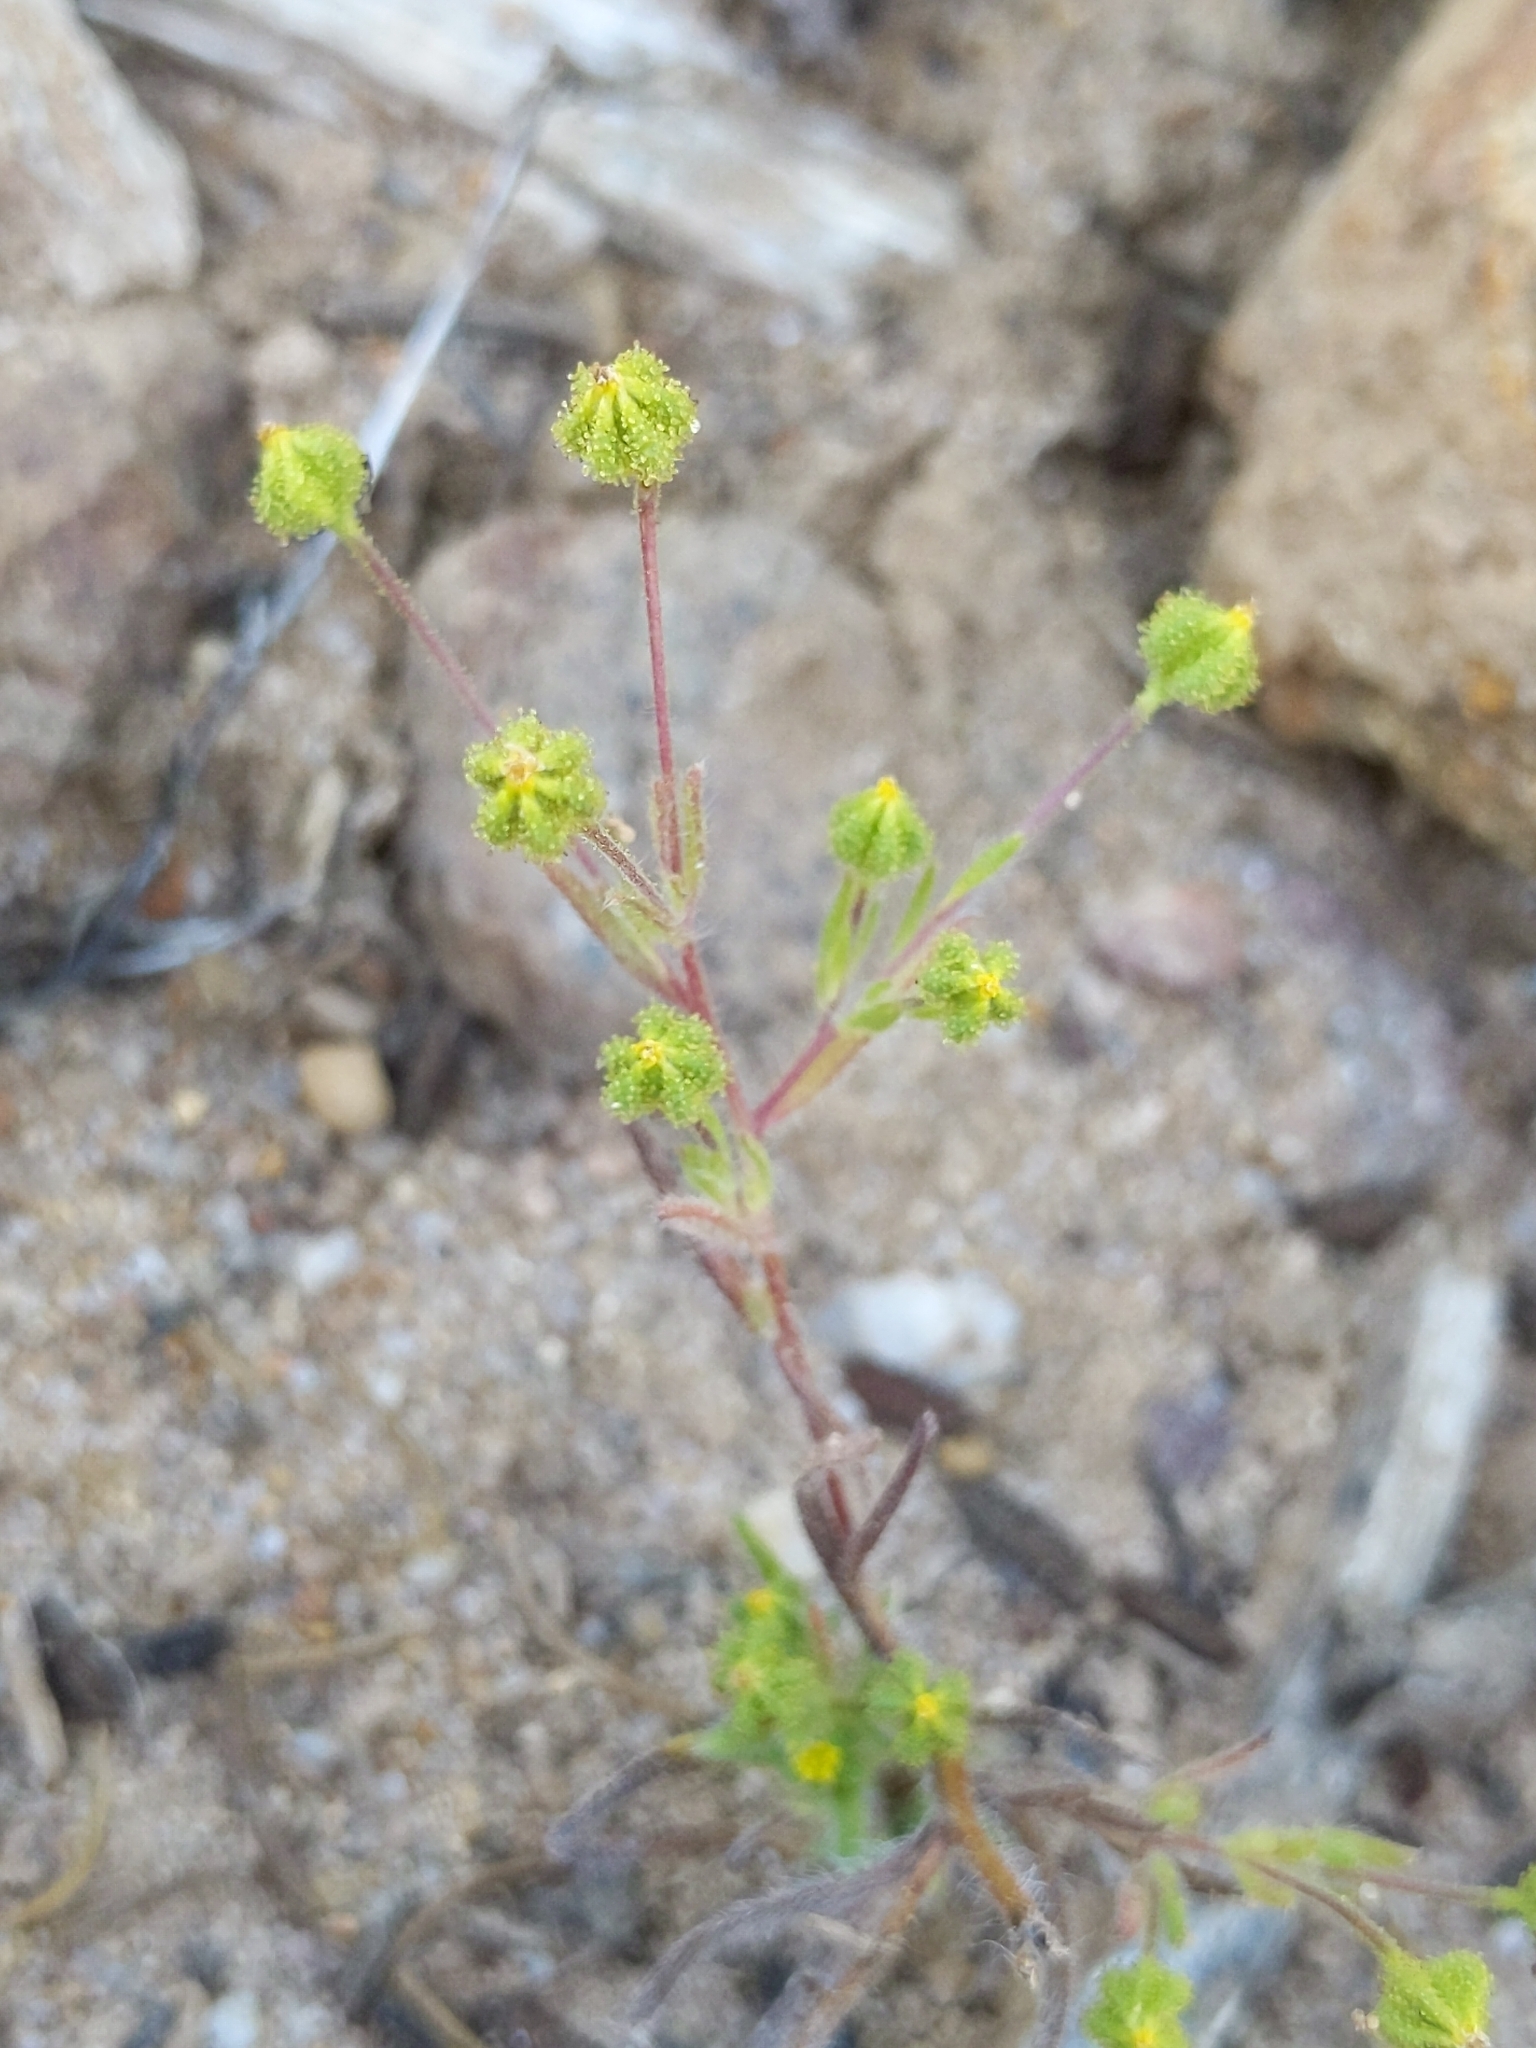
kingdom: Plantae
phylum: Tracheophyta
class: Magnoliopsida
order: Asterales
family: Asteraceae
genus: Madia
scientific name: Madia exigua
